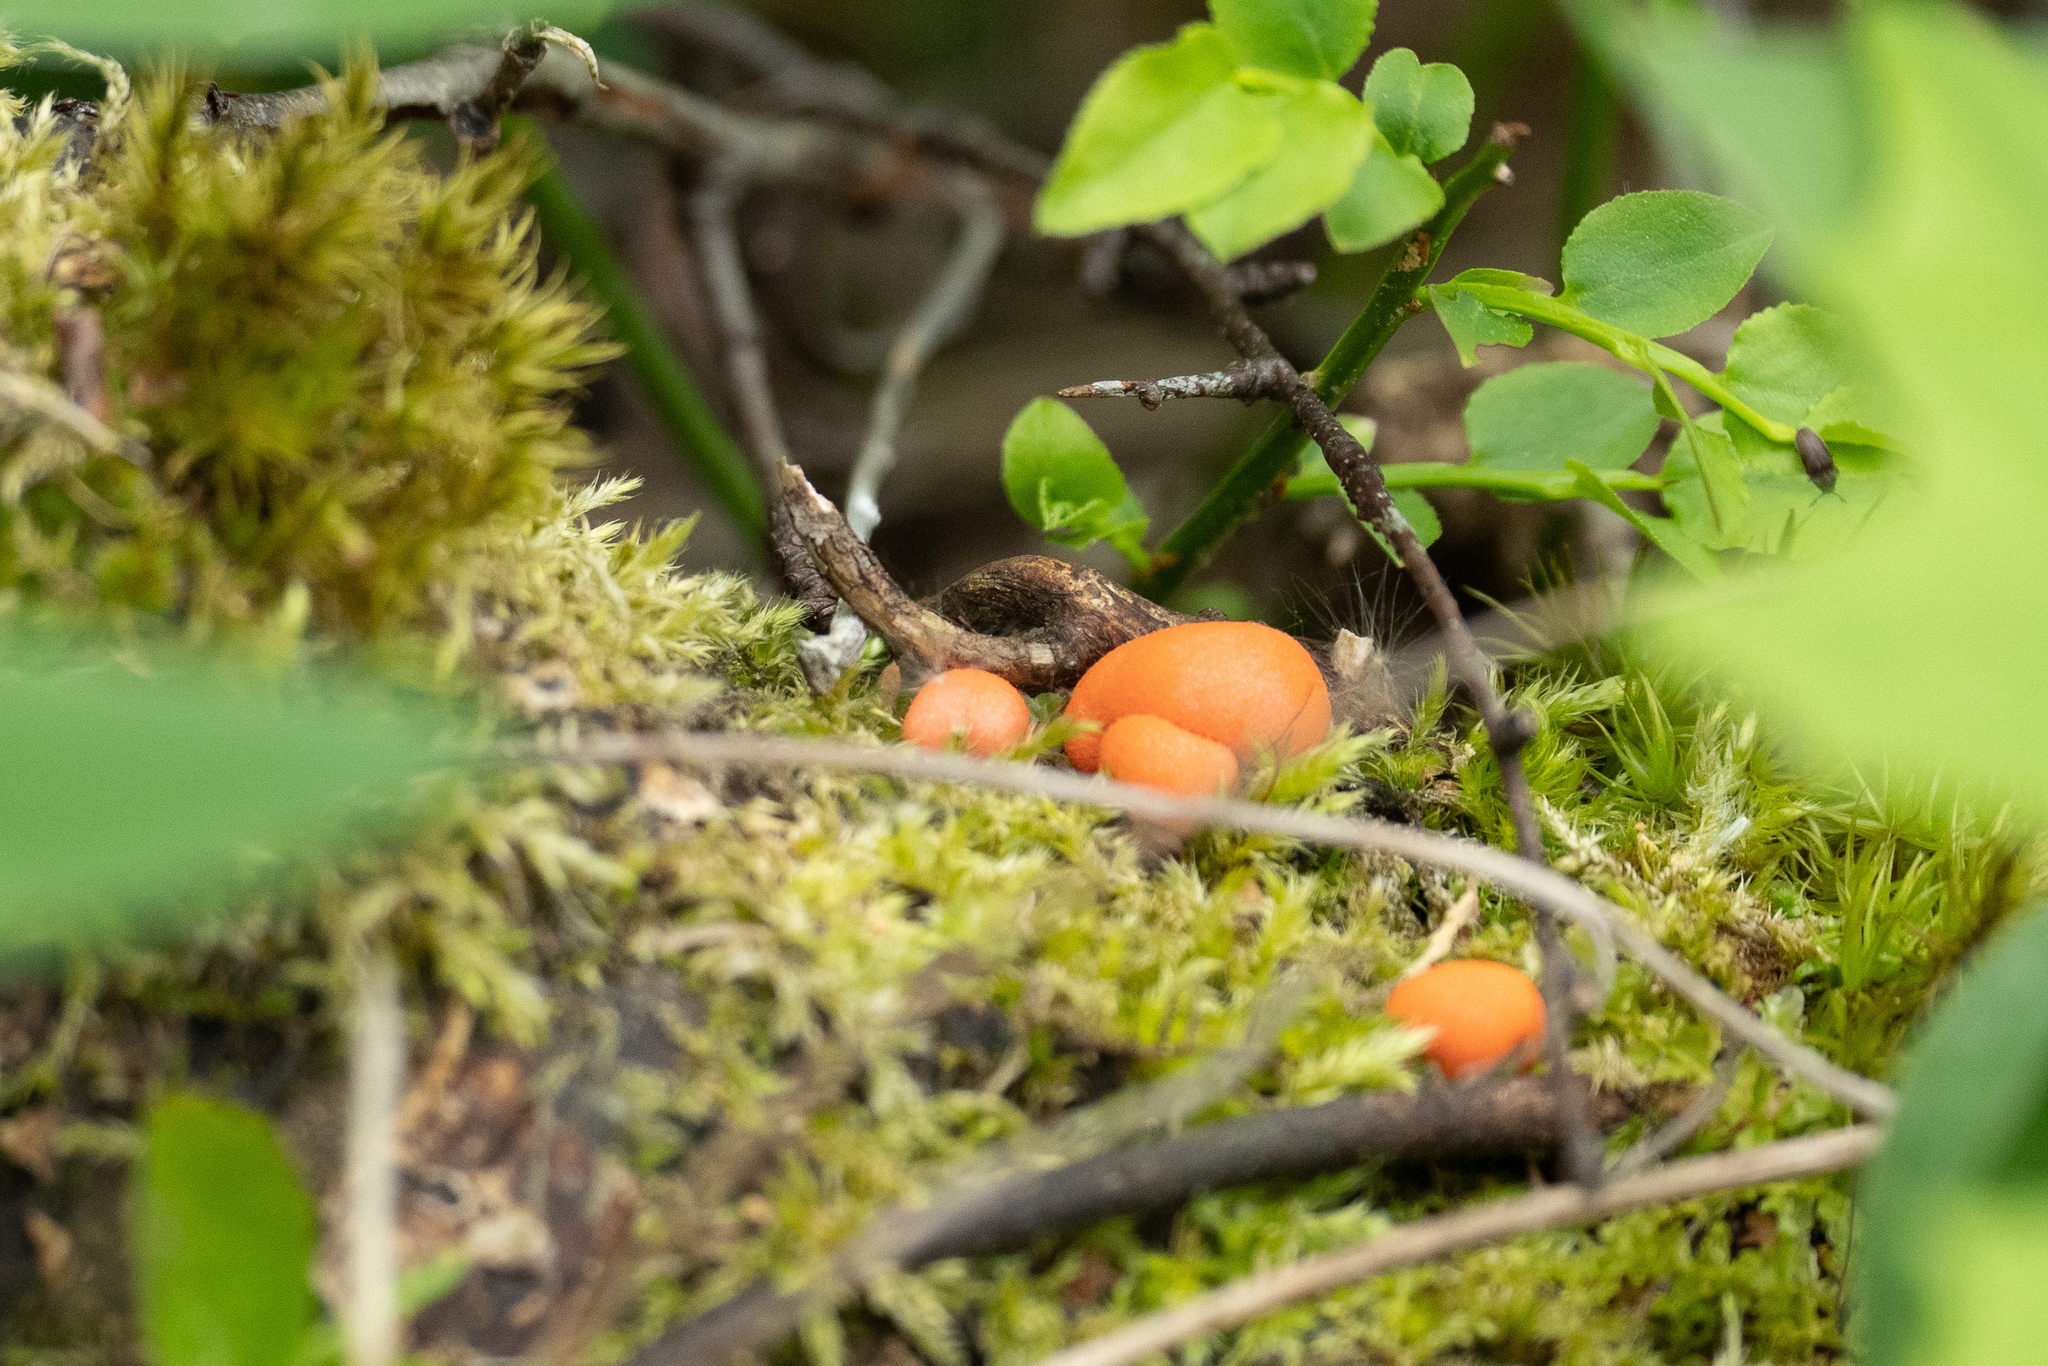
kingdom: Protozoa
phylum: Mycetozoa
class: Myxomycetes
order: Cribrariales
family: Tubiferaceae
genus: Lycogala
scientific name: Lycogala epidendrum
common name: Wolf's milk
